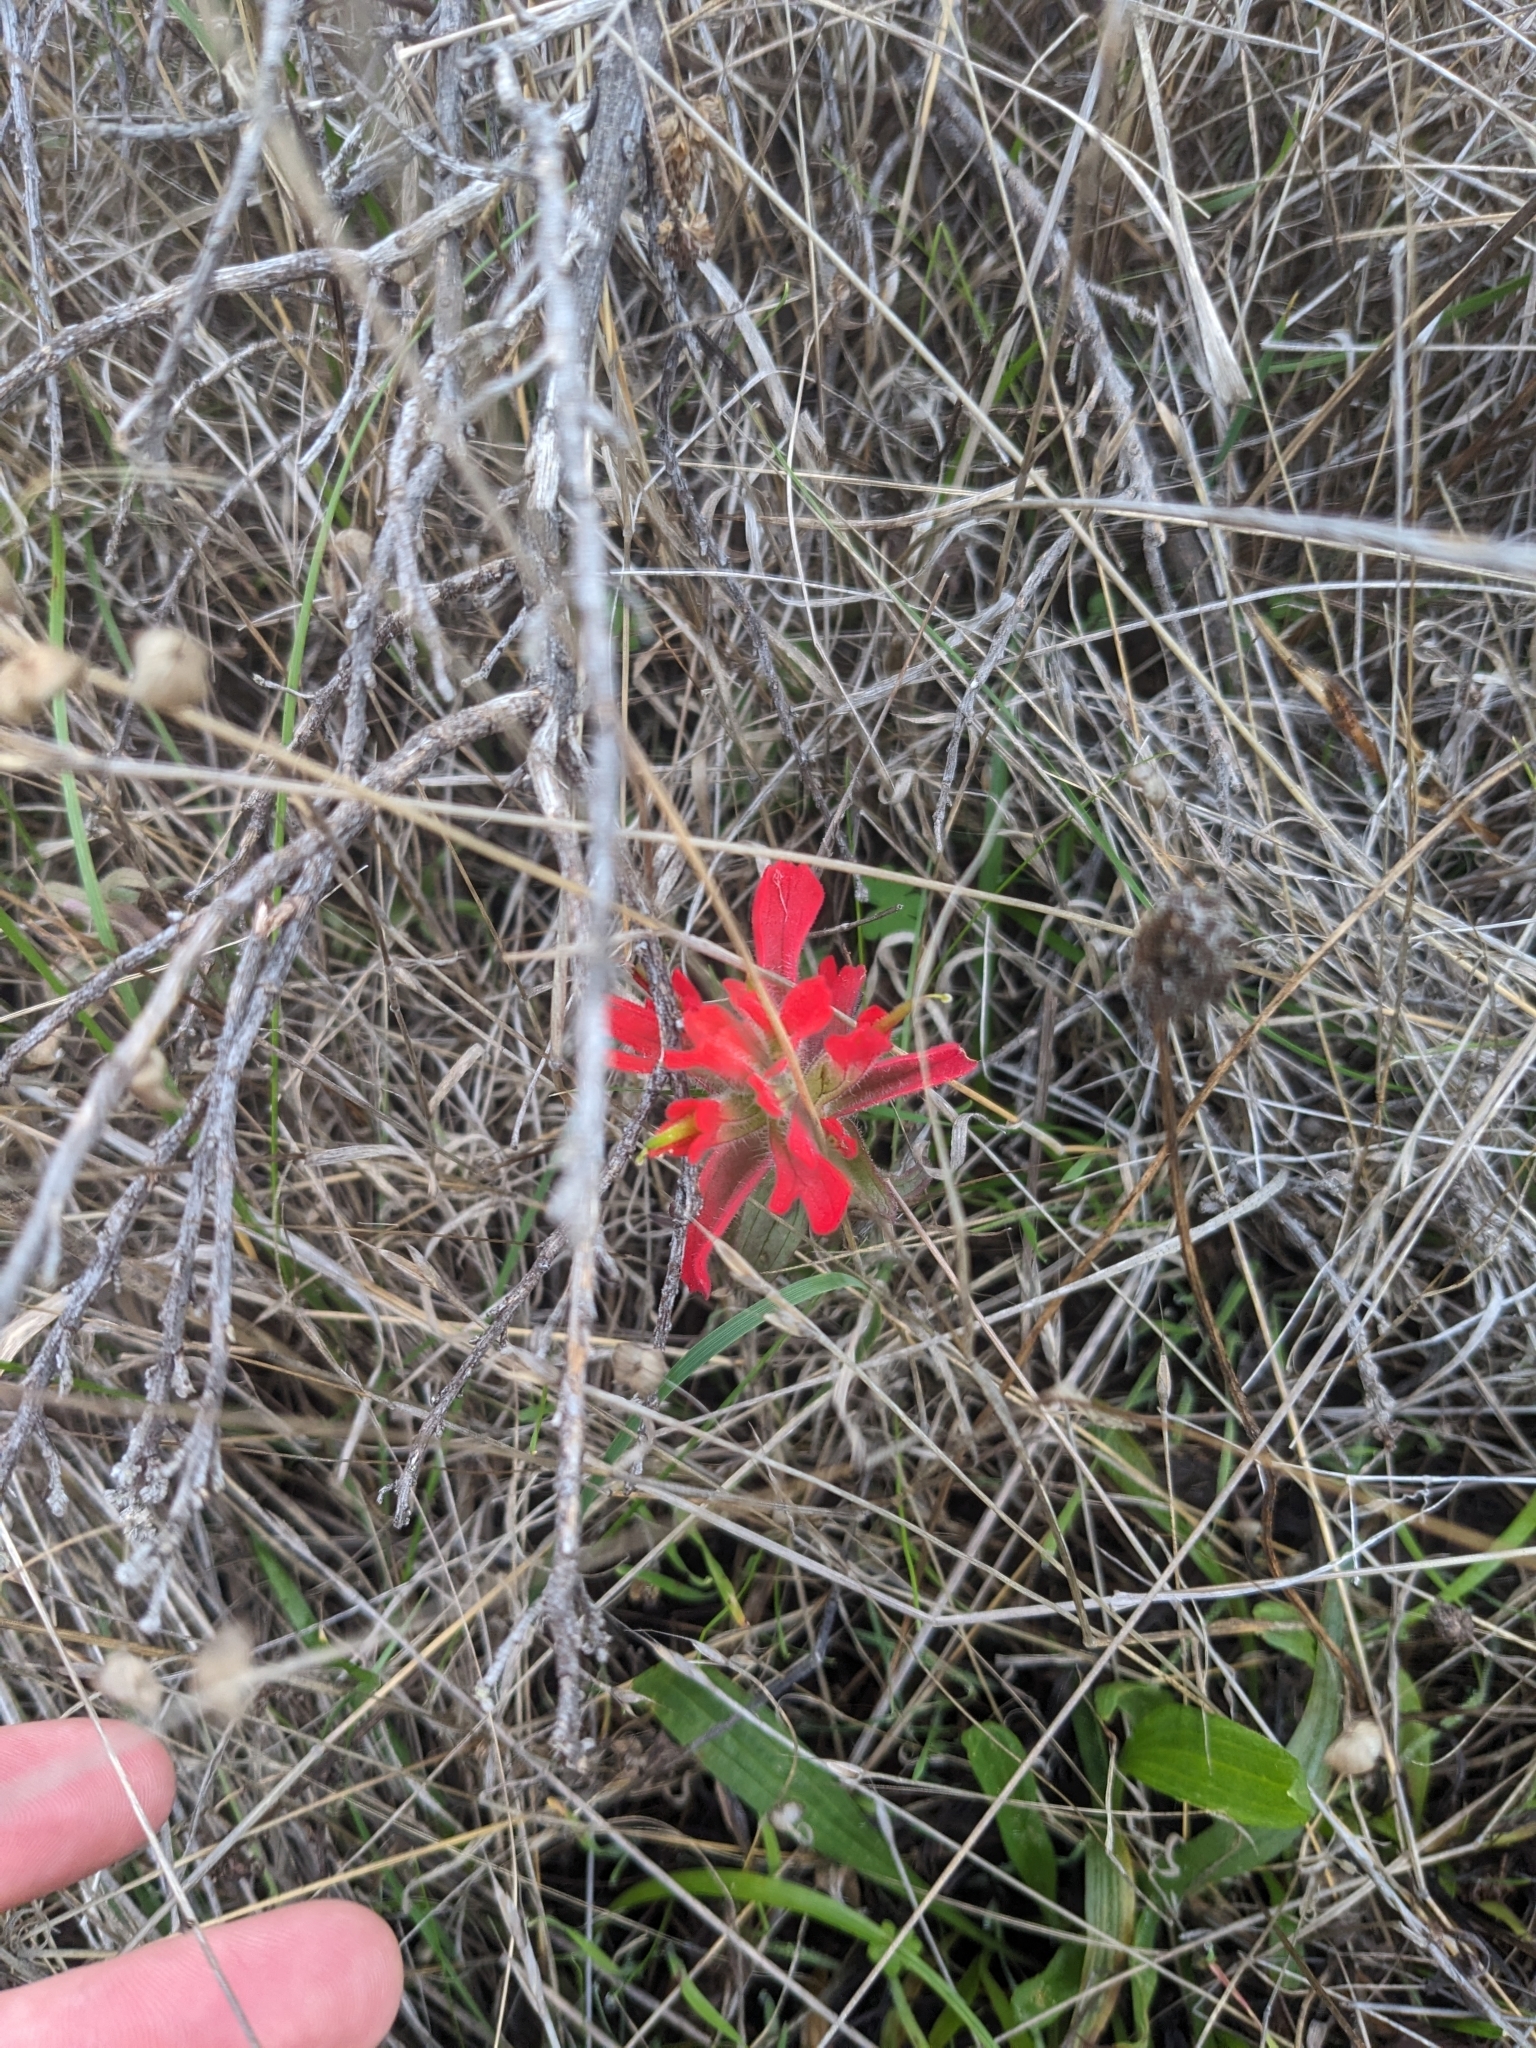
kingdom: Plantae
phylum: Tracheophyta
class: Magnoliopsida
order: Lamiales
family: Orobanchaceae
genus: Castilleja
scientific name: Castilleja affinis
